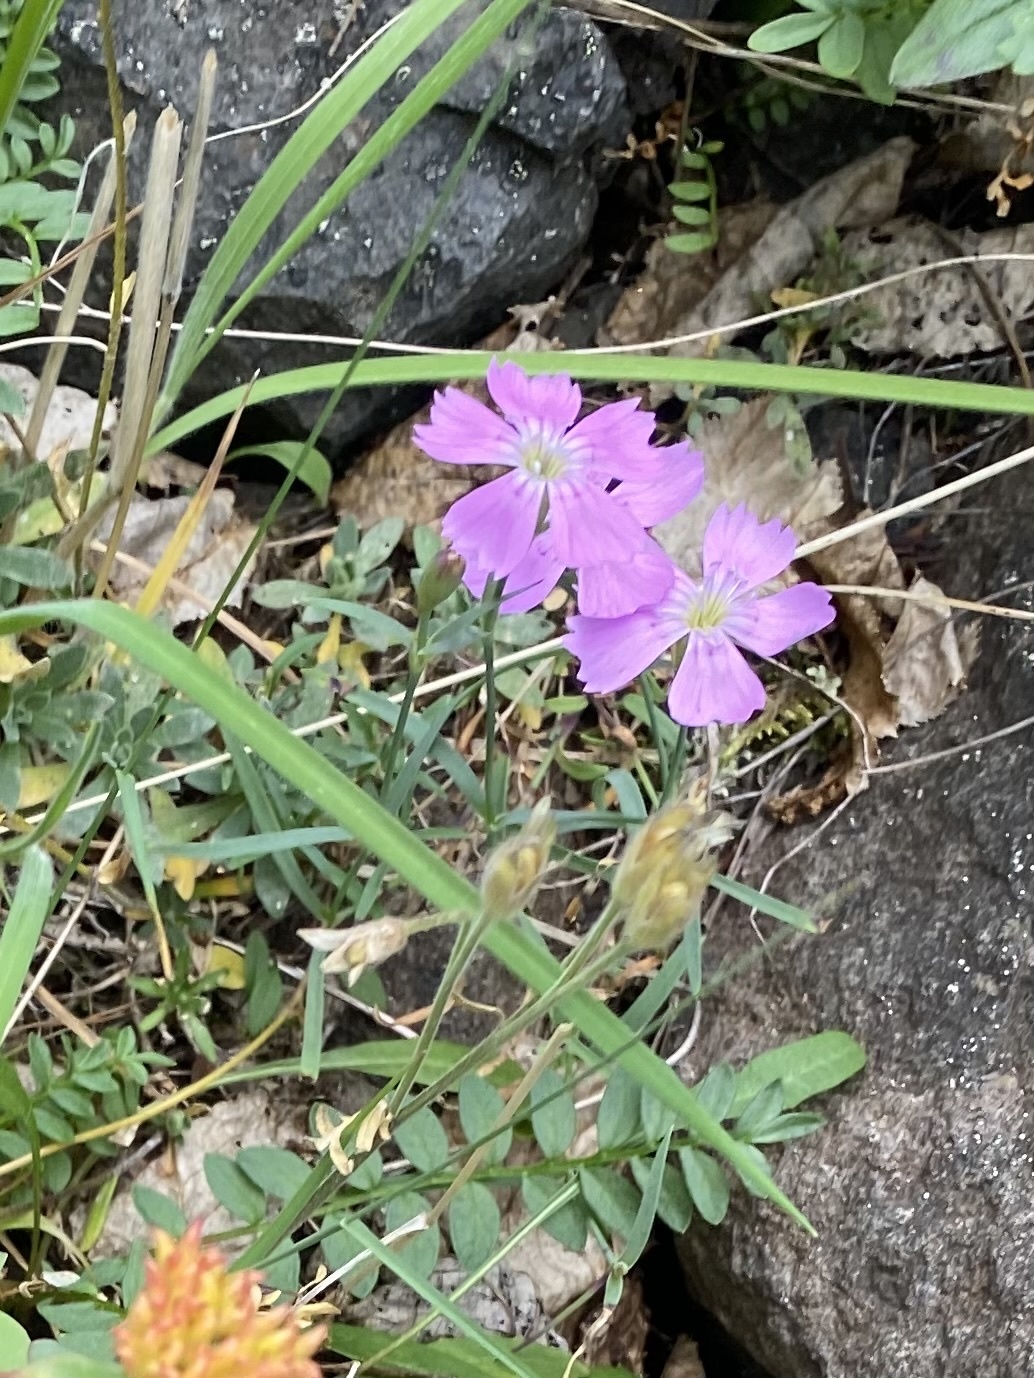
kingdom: Plantae
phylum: Tracheophyta
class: Magnoliopsida
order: Caryophyllales
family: Caryophyllaceae
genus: Dianthus
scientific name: Dianthus repens
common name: Northern pink
